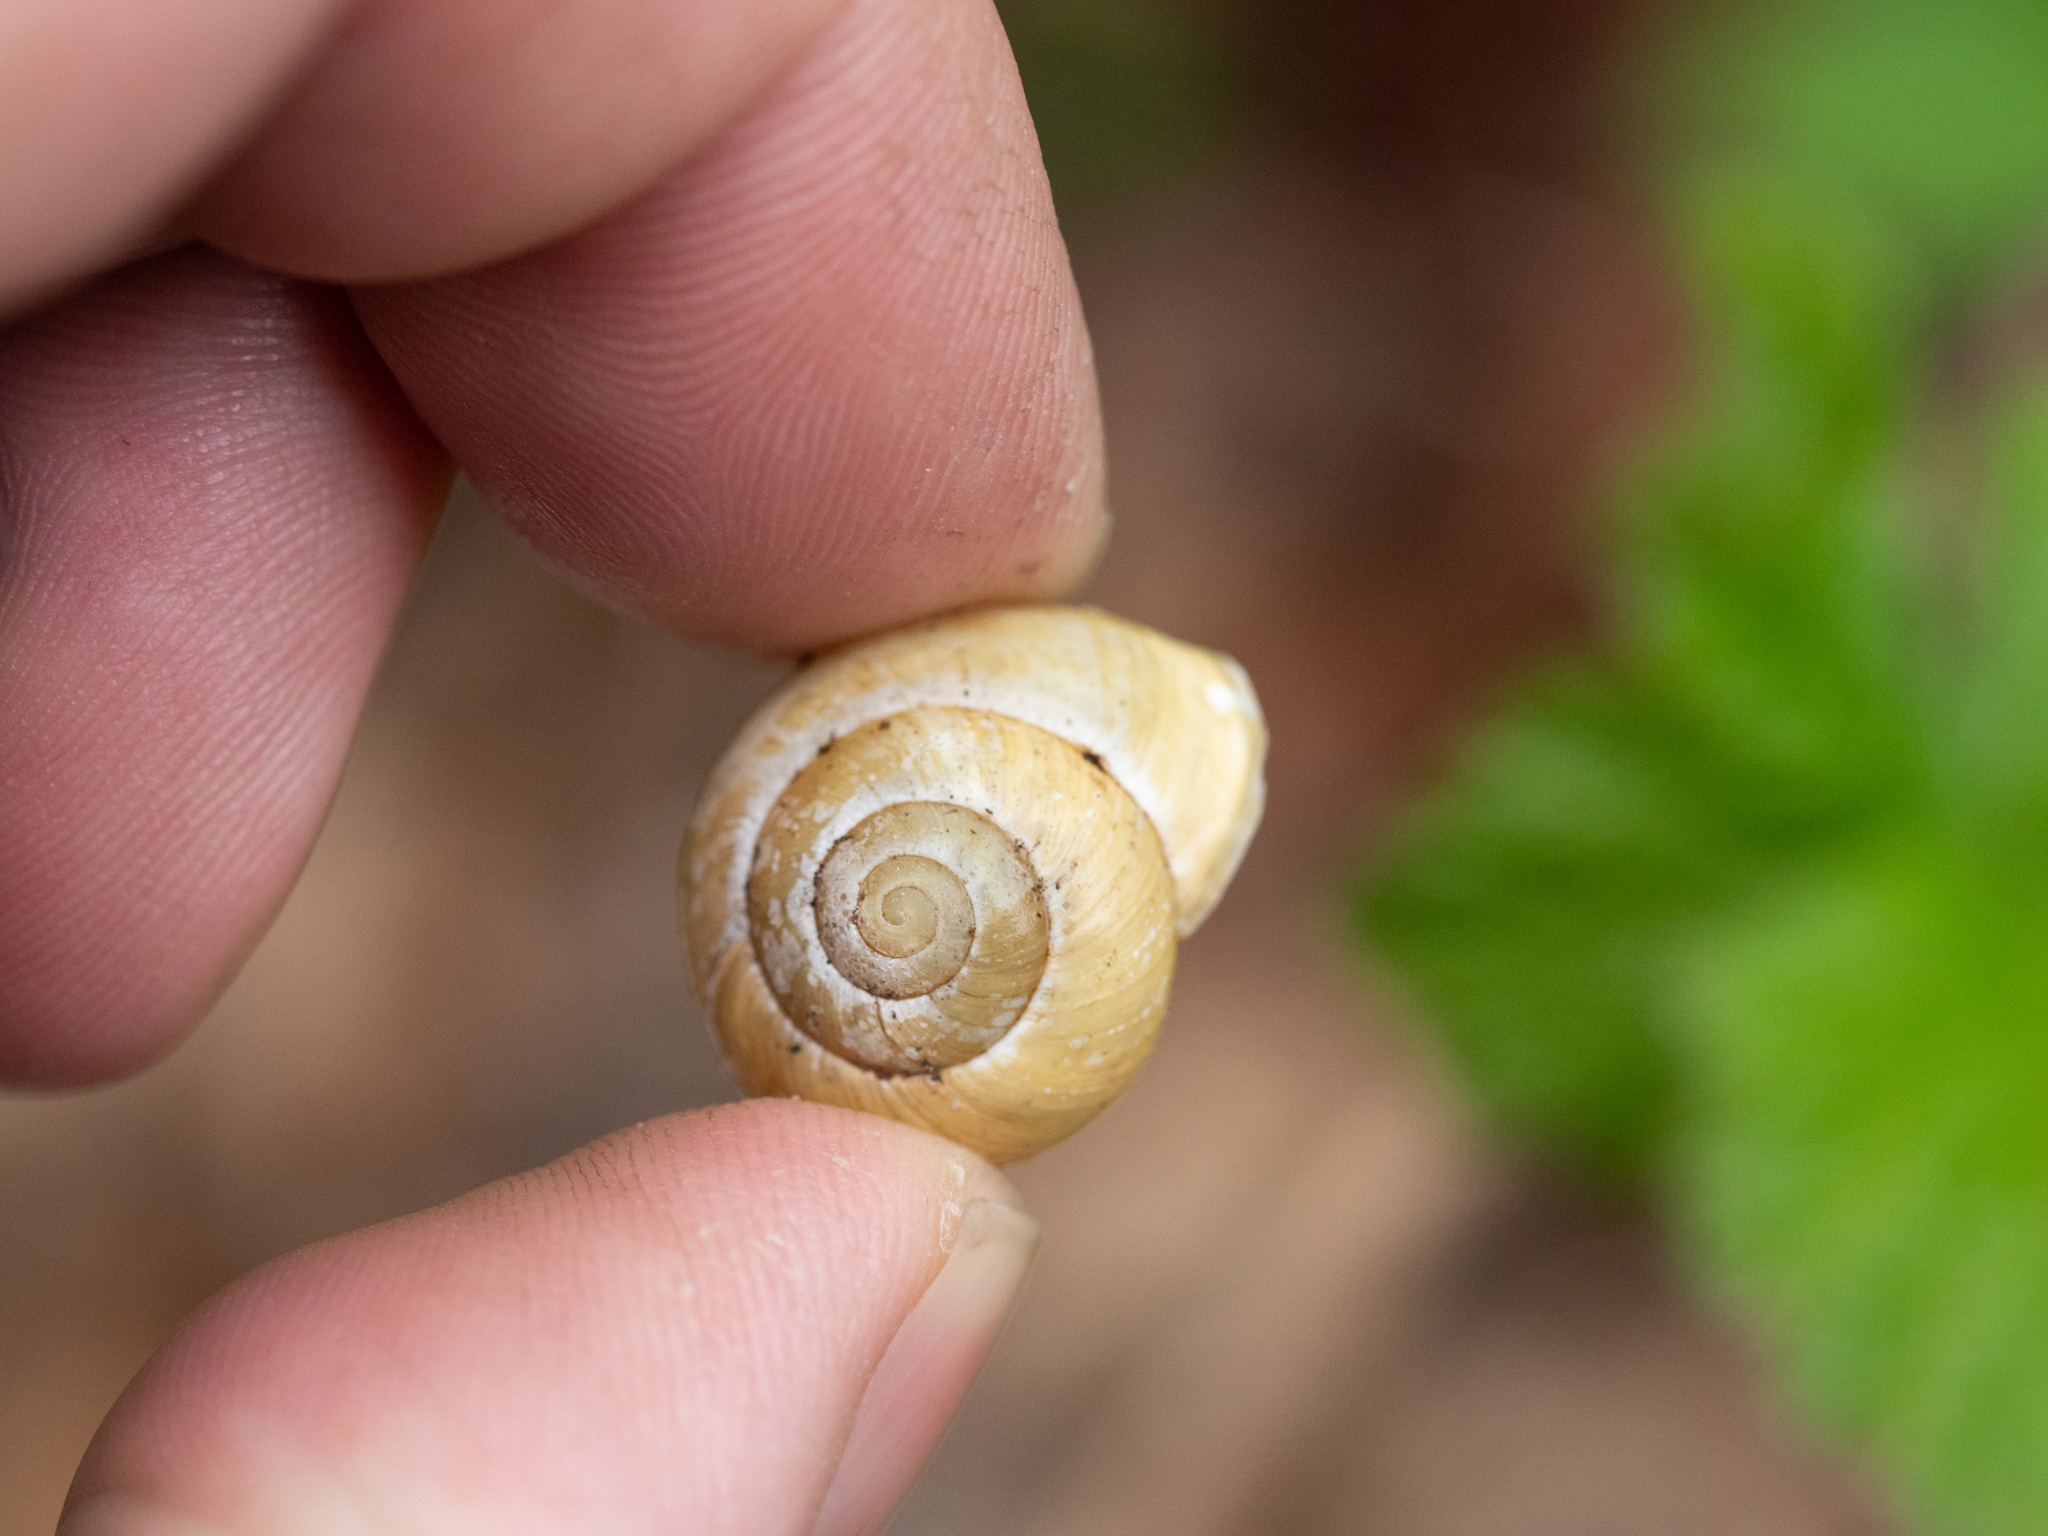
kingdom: Animalia
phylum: Mollusca
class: Gastropoda
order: Stylommatophora
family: Helicidae
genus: Cepaea
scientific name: Cepaea hortensis
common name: White-lip gardensnail
